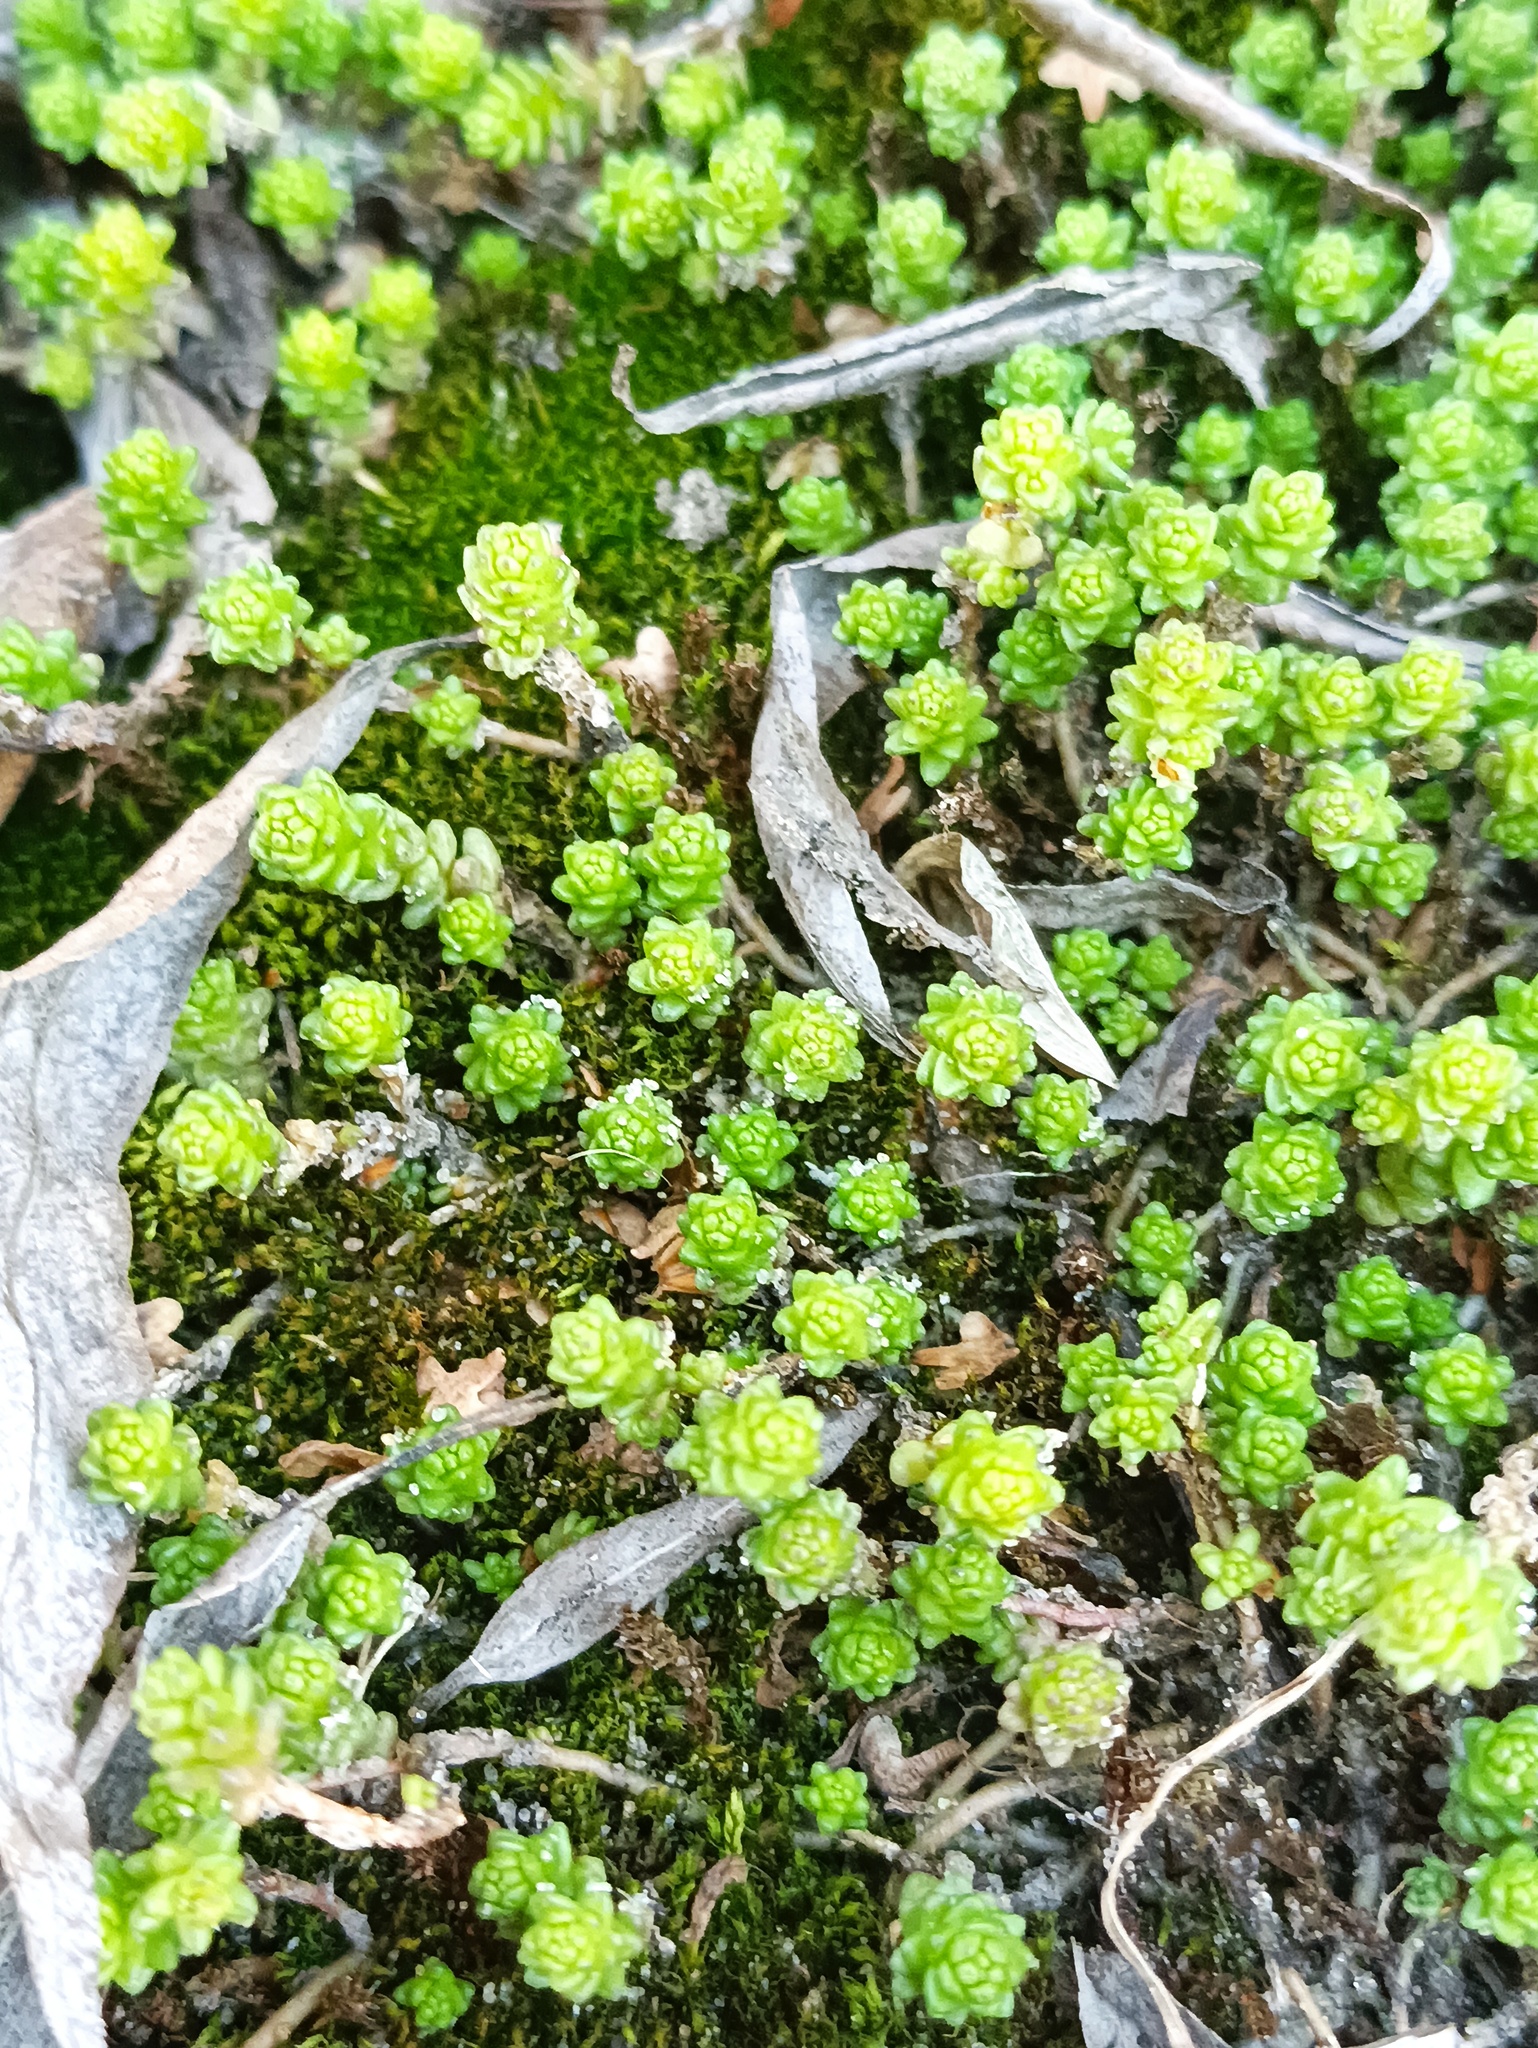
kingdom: Plantae
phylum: Tracheophyta
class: Magnoliopsida
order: Saxifragales
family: Crassulaceae
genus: Sedum
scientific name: Sedum acre
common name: Biting stonecrop
